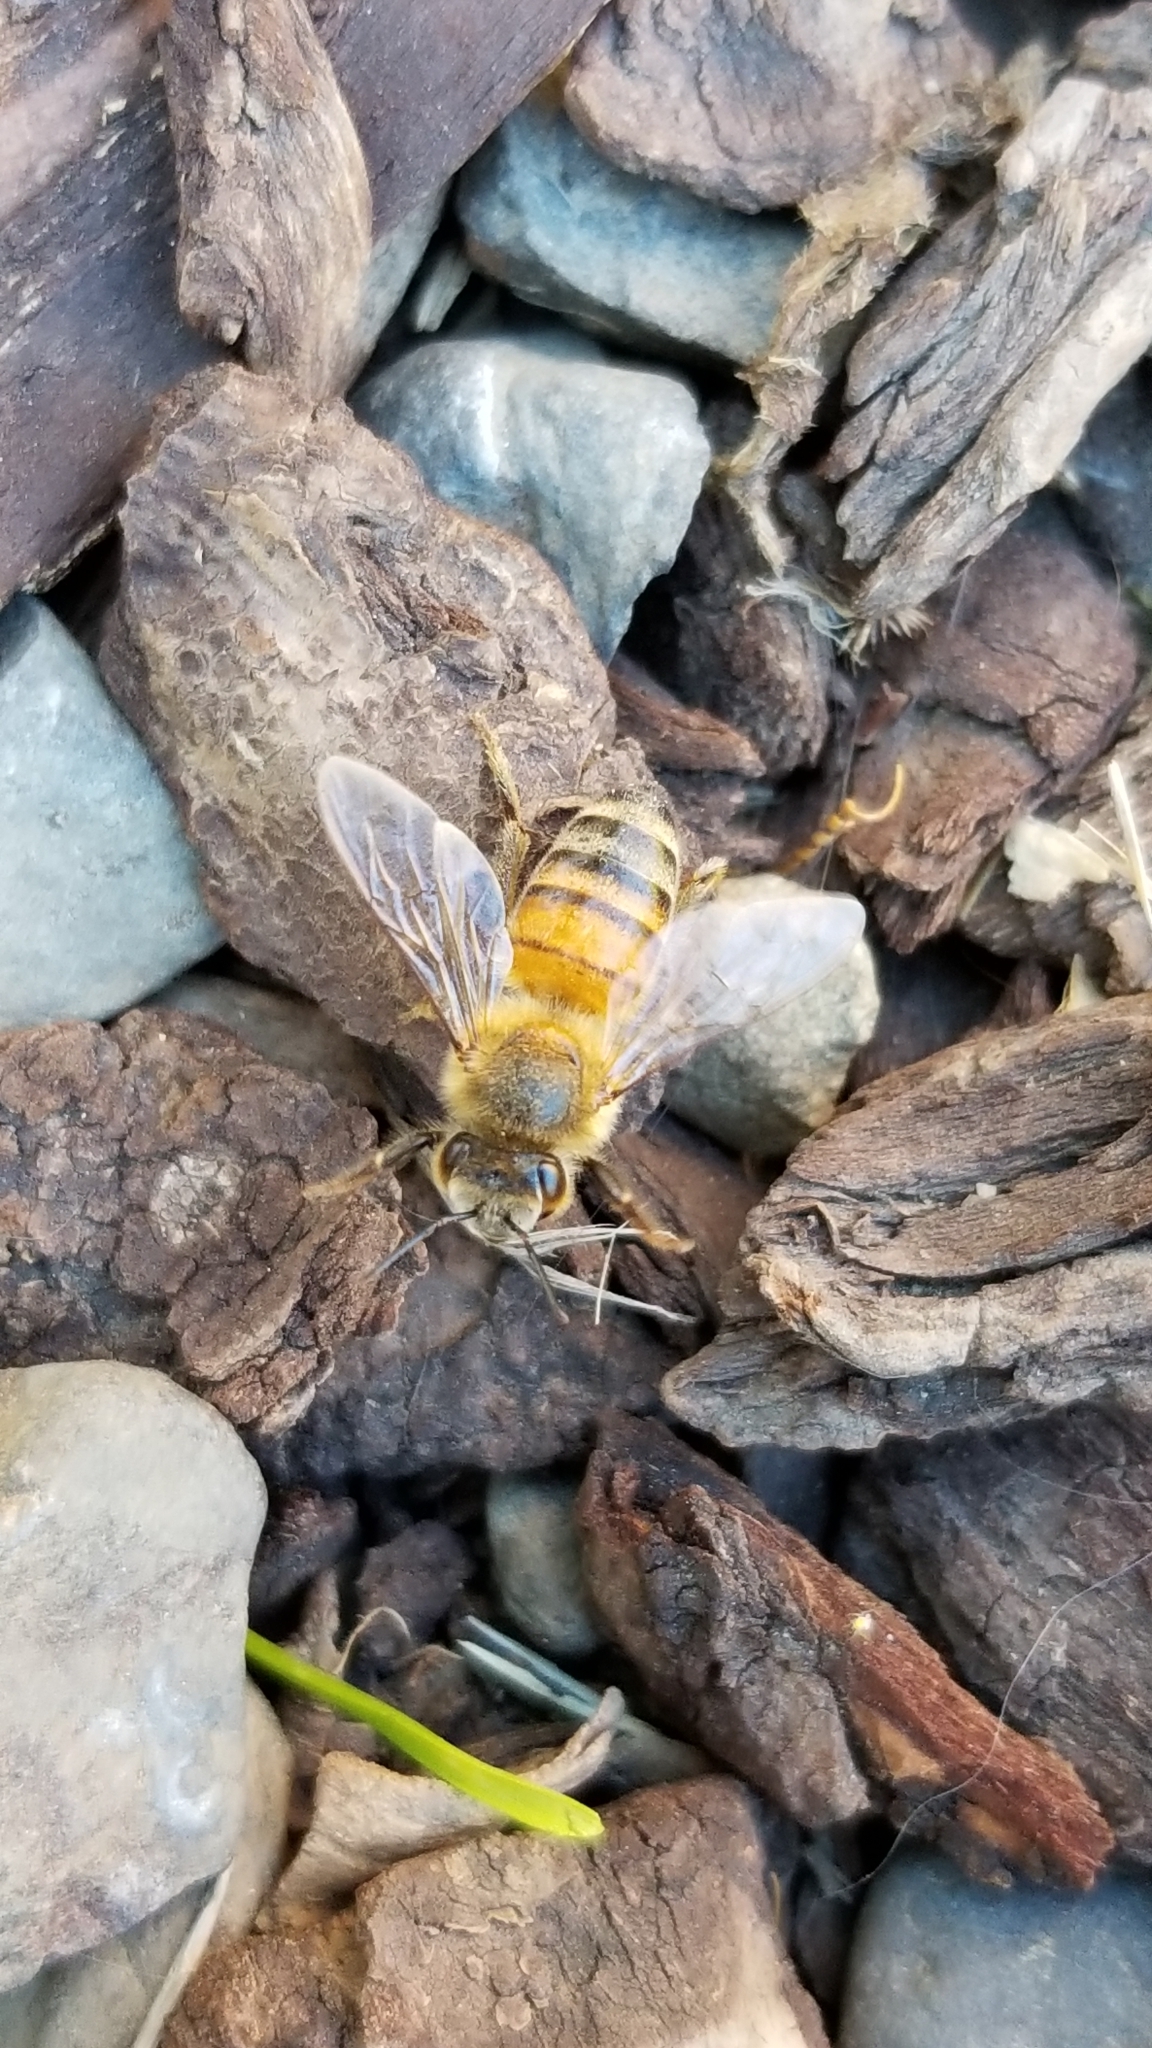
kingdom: Animalia
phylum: Arthropoda
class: Insecta
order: Hymenoptera
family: Apidae
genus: Apis
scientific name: Apis mellifera
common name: Honey bee
